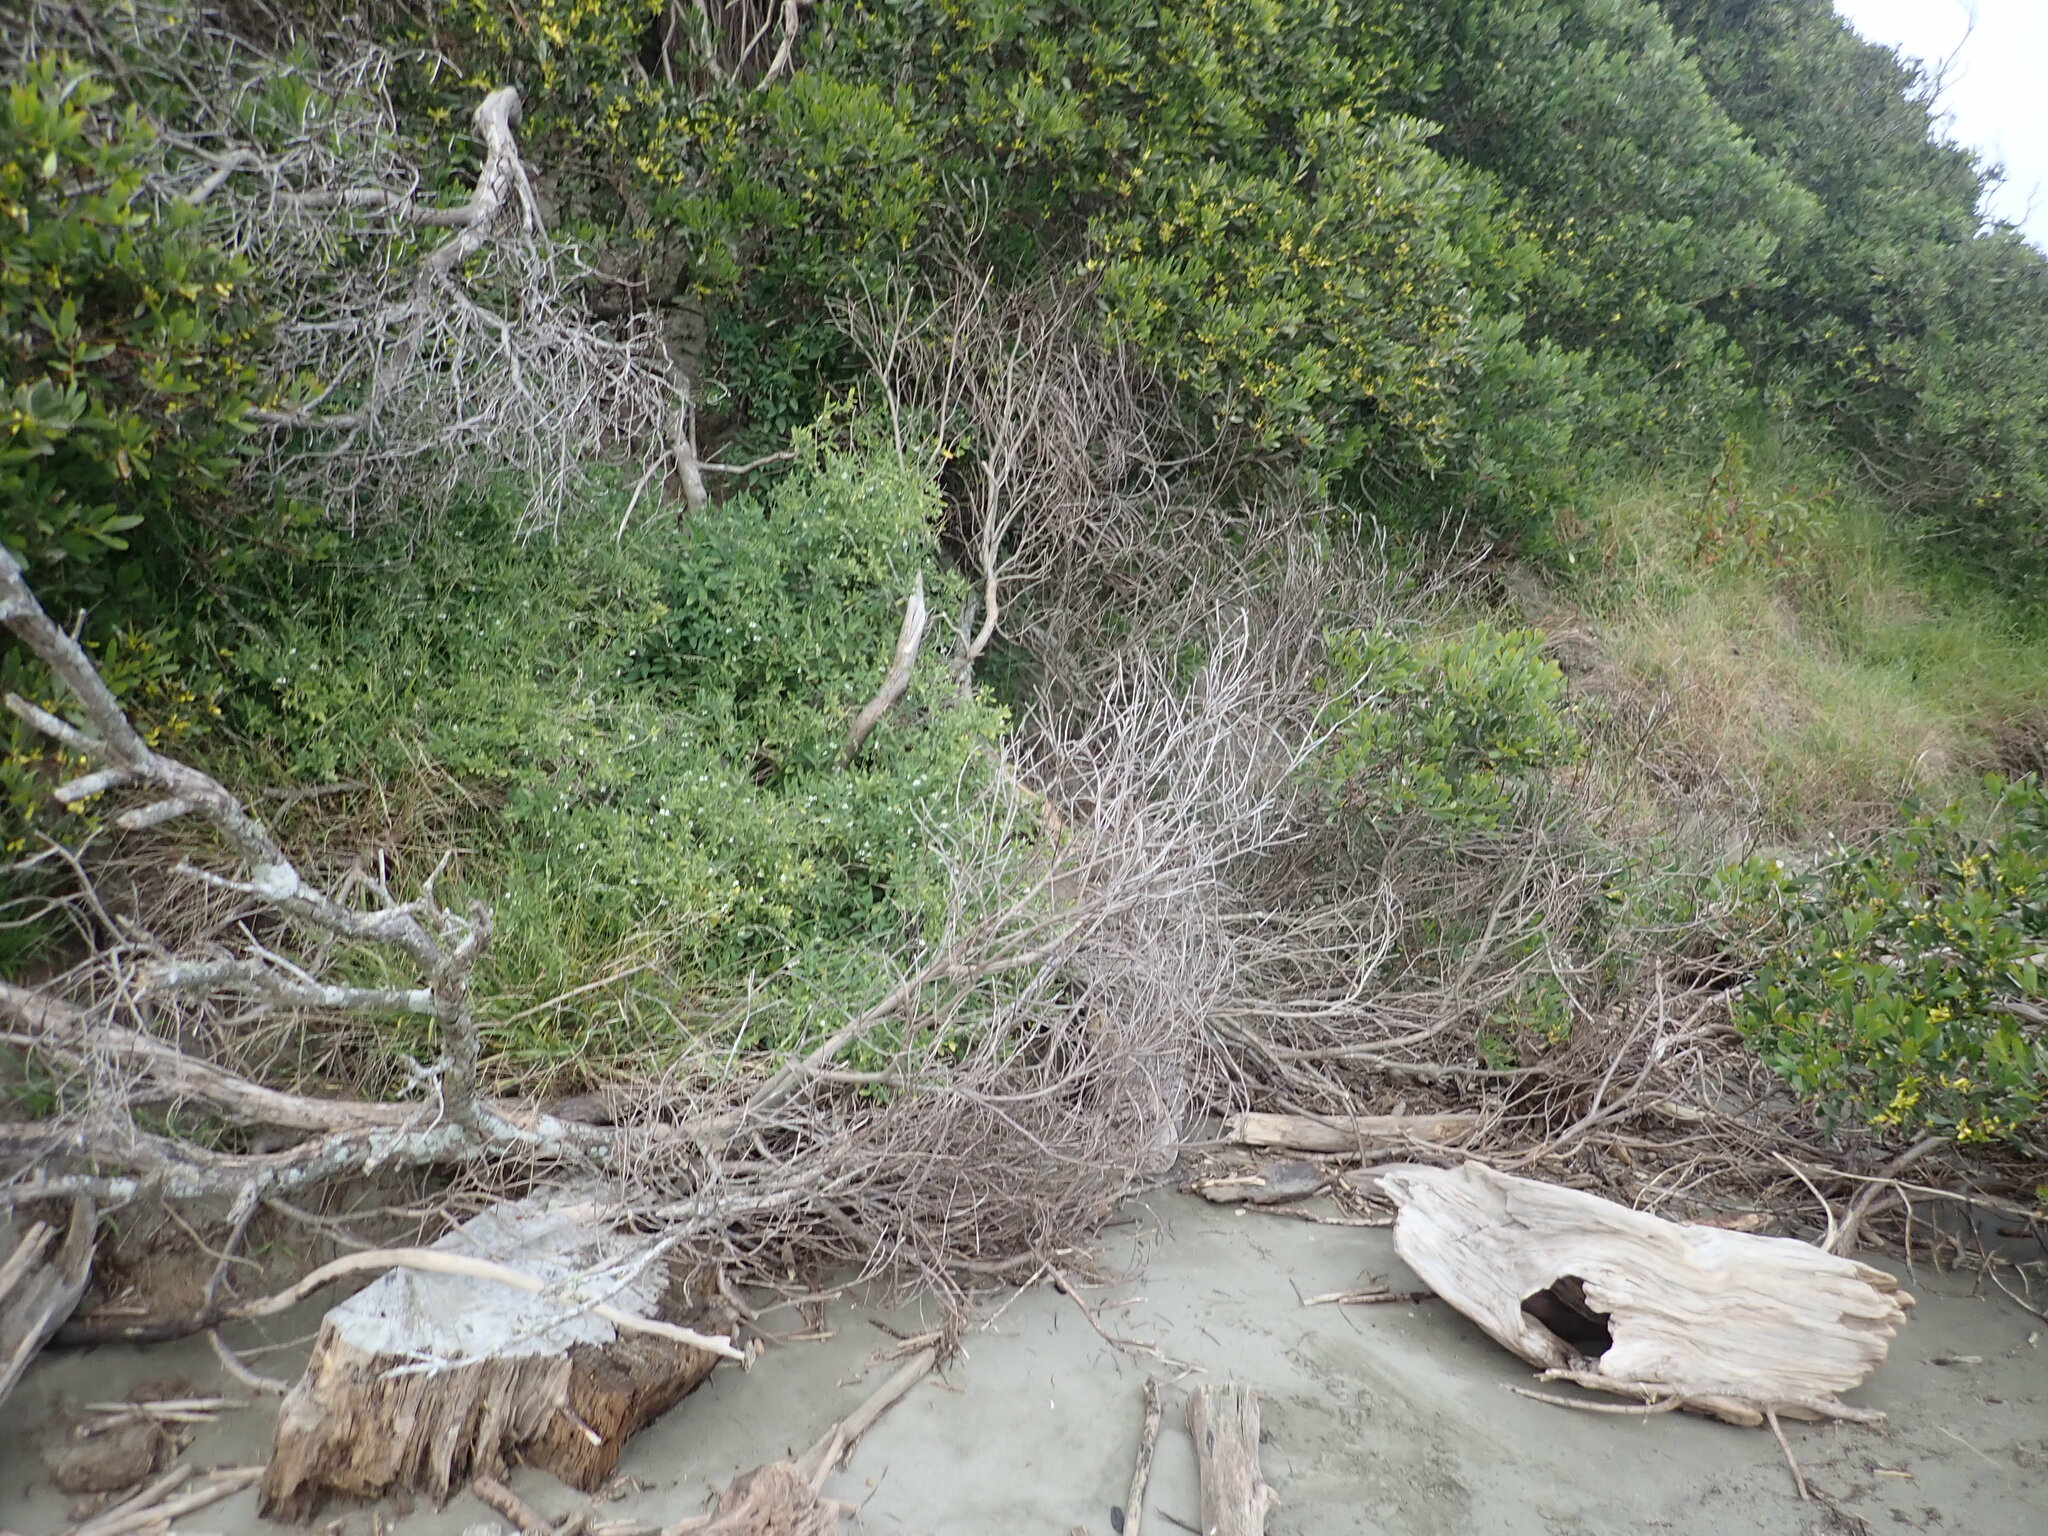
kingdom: Plantae
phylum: Tracheophyta
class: Magnoliopsida
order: Solanales
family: Solanaceae
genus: Solanum
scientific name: Solanum chenopodioides
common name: Tall nightshade
